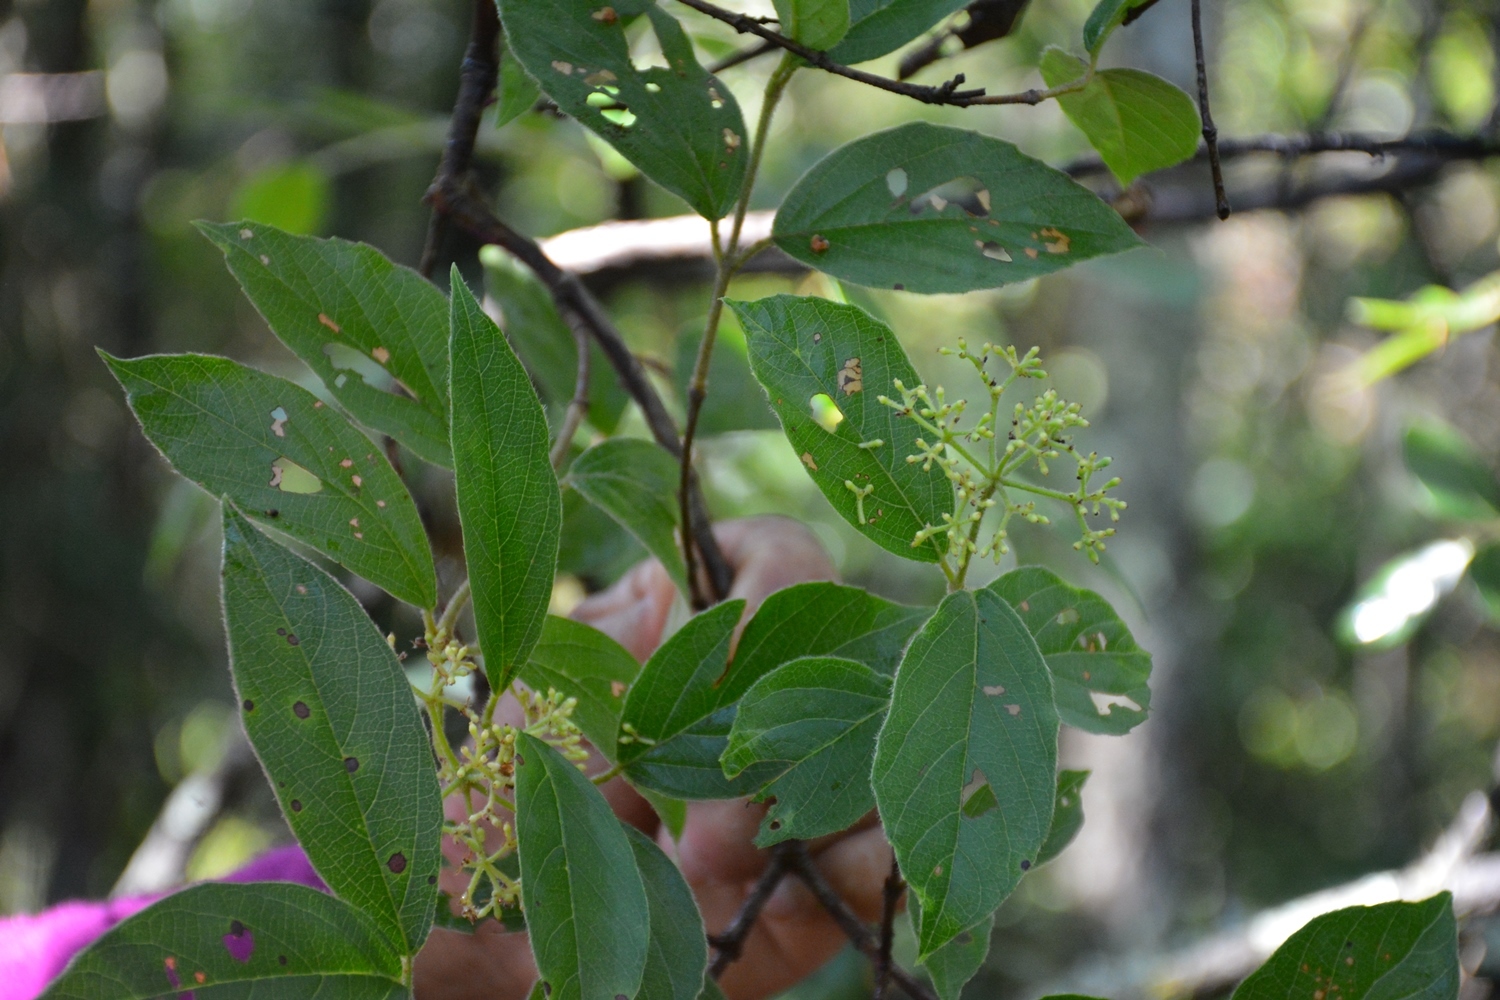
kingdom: Plantae
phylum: Tracheophyta
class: Magnoliopsida
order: Dipsacales
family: Viburnaceae
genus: Viburnum
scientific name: Viburnum lautum
